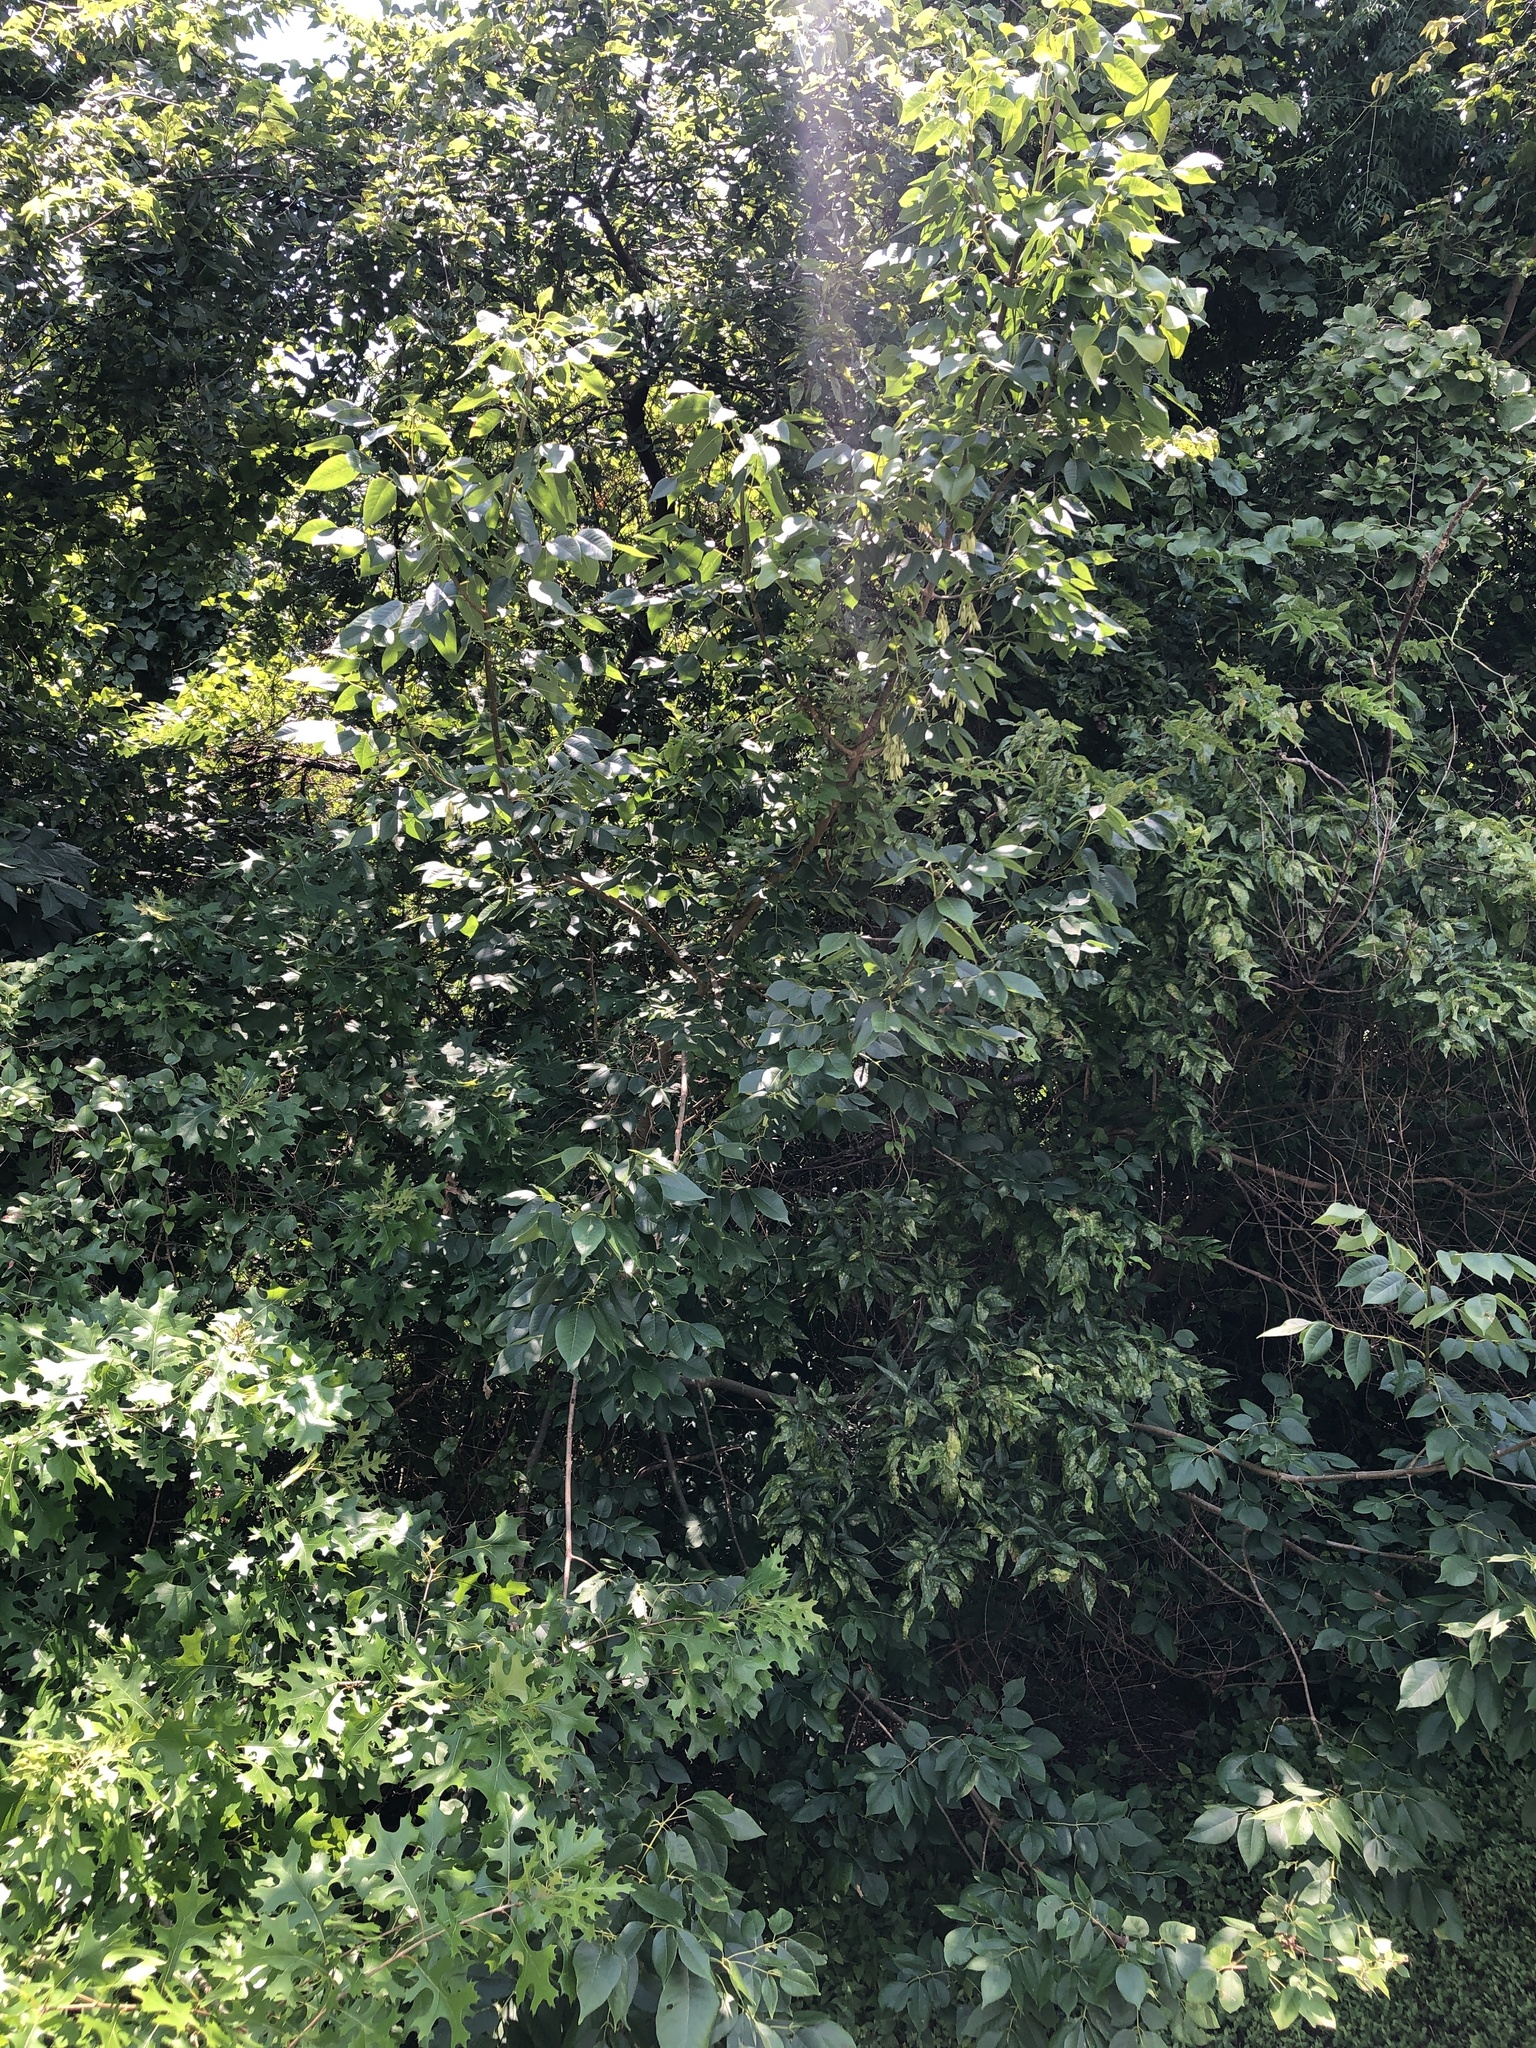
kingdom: Plantae
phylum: Tracheophyta
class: Magnoliopsida
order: Lamiales
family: Oleaceae
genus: Fraxinus
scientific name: Fraxinus americana
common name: White ash
